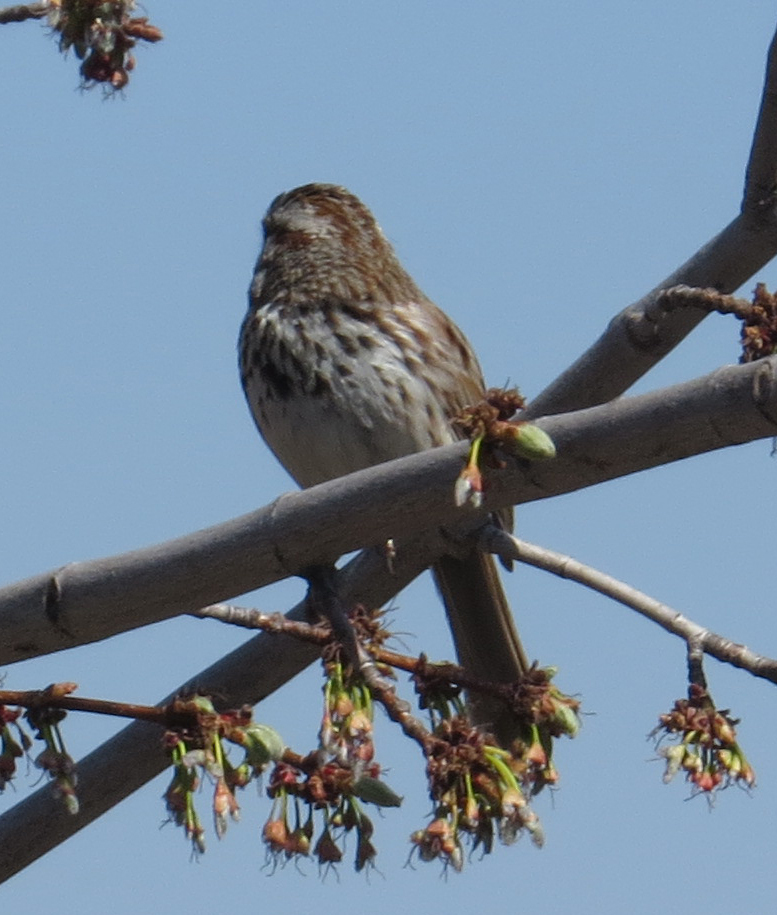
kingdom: Animalia
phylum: Chordata
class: Aves
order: Passeriformes
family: Passerellidae
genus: Melospiza
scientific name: Melospiza melodia
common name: Song sparrow
